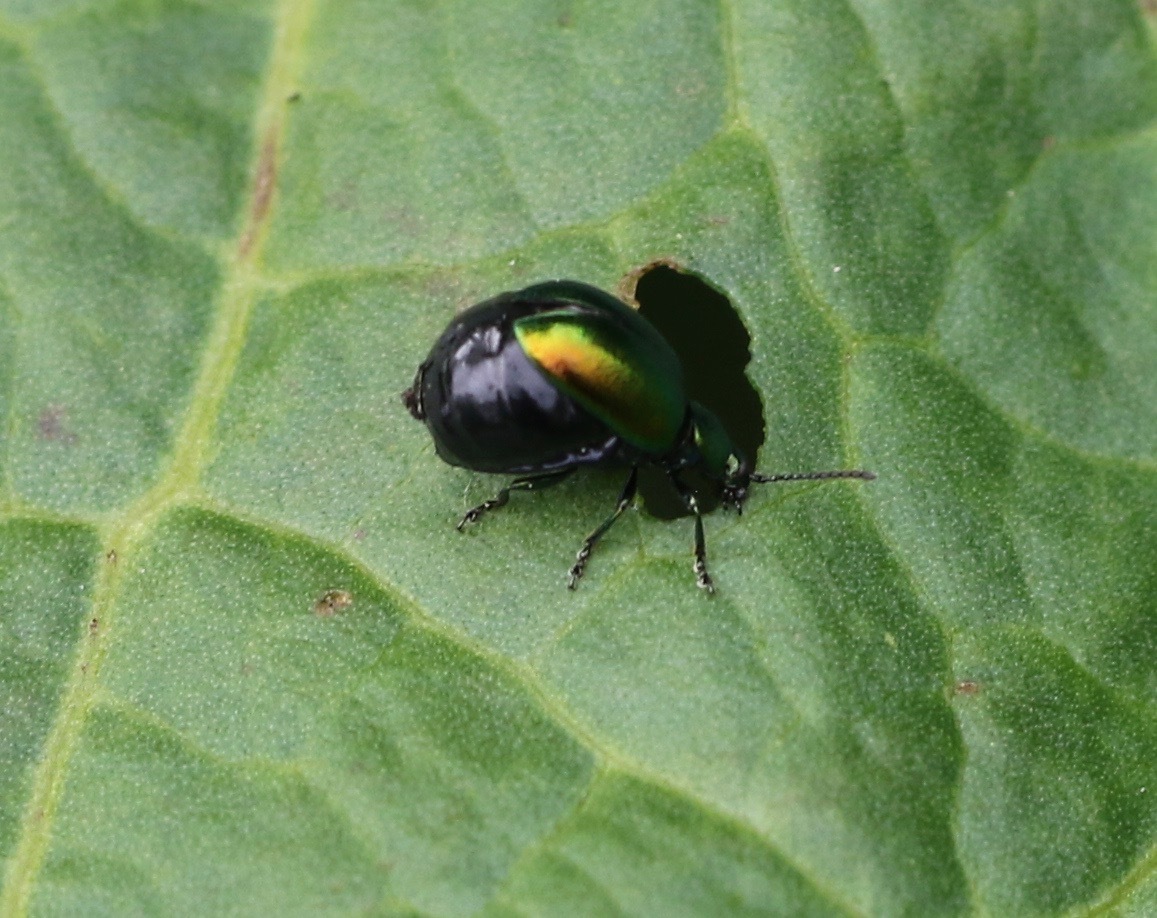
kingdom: Animalia
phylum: Arthropoda
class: Insecta
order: Coleoptera
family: Chrysomelidae
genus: Gastrophysa
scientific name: Gastrophysa viridula
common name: Green dock beetle
